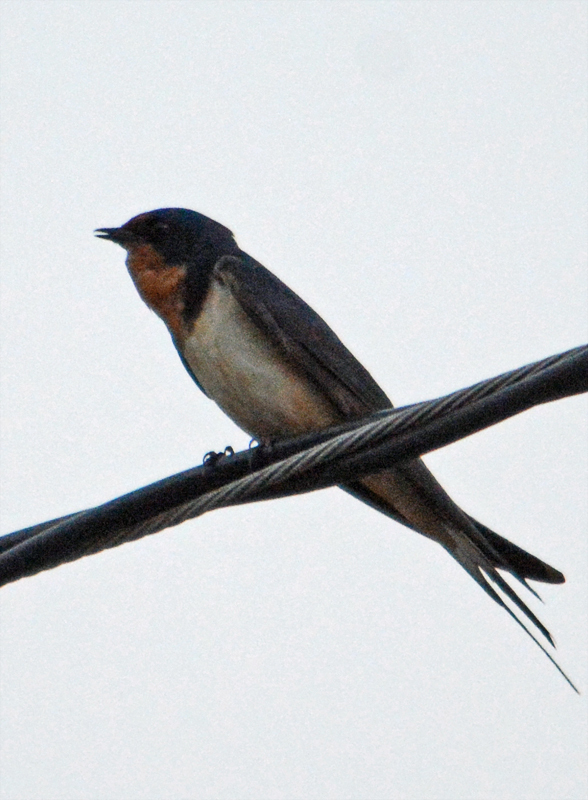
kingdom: Animalia
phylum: Chordata
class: Aves
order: Passeriformes
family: Hirundinidae
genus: Hirundo
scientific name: Hirundo rustica
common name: Barn swallow
